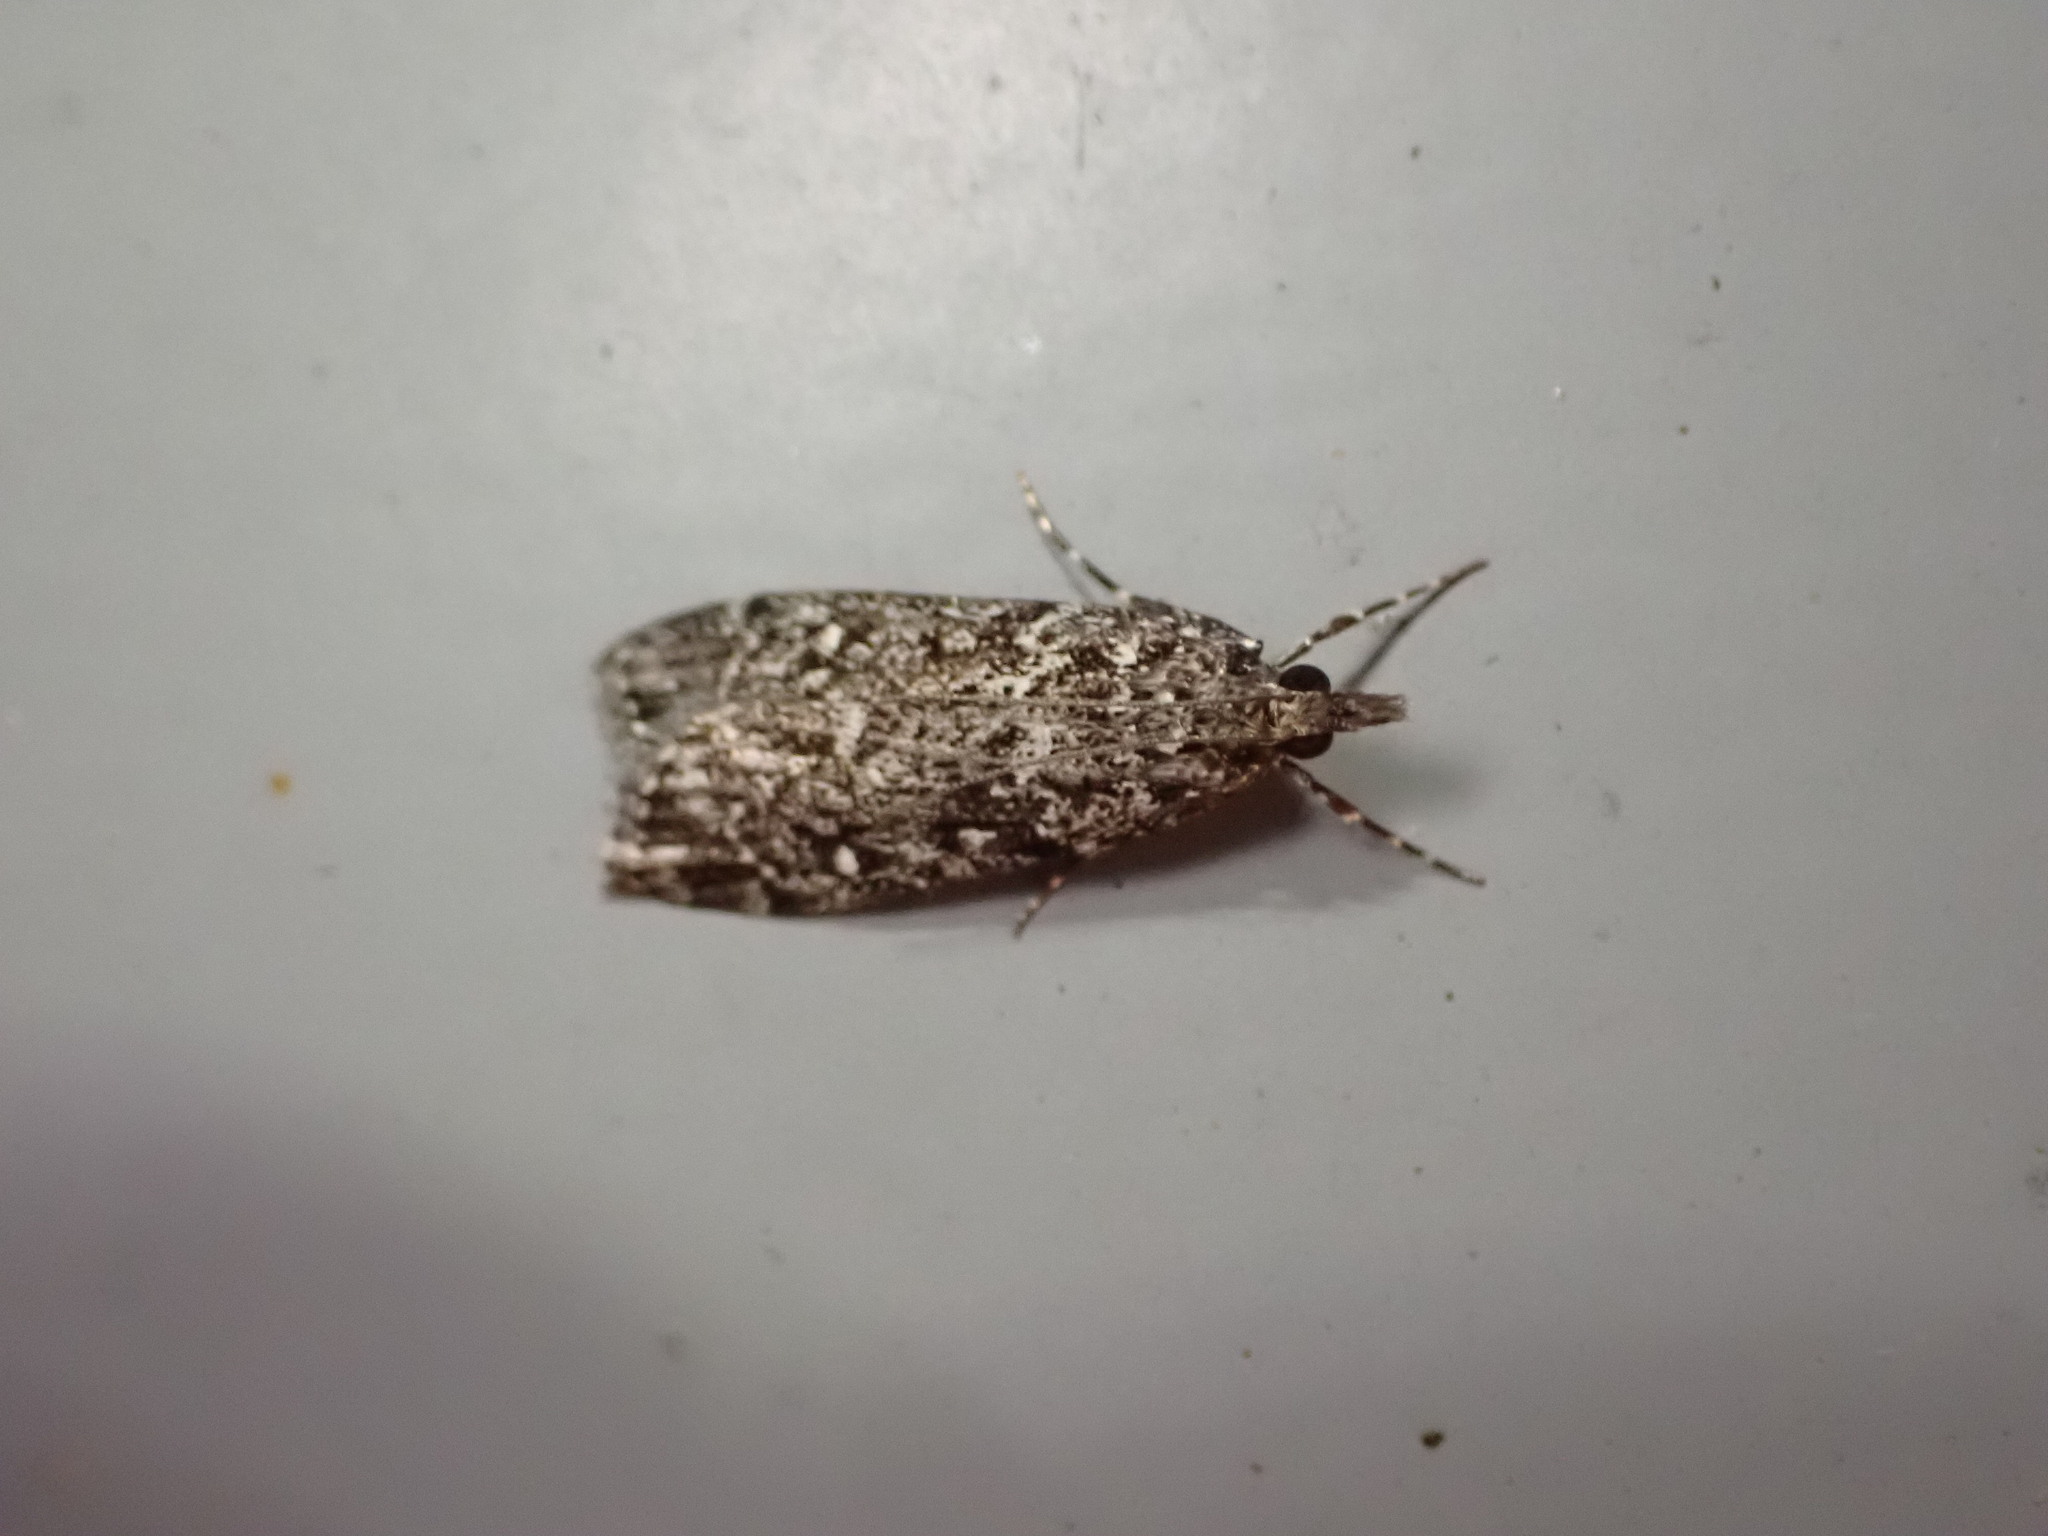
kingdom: Animalia
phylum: Arthropoda
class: Insecta
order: Lepidoptera
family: Crambidae
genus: Eudonia
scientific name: Eudonia philerga
